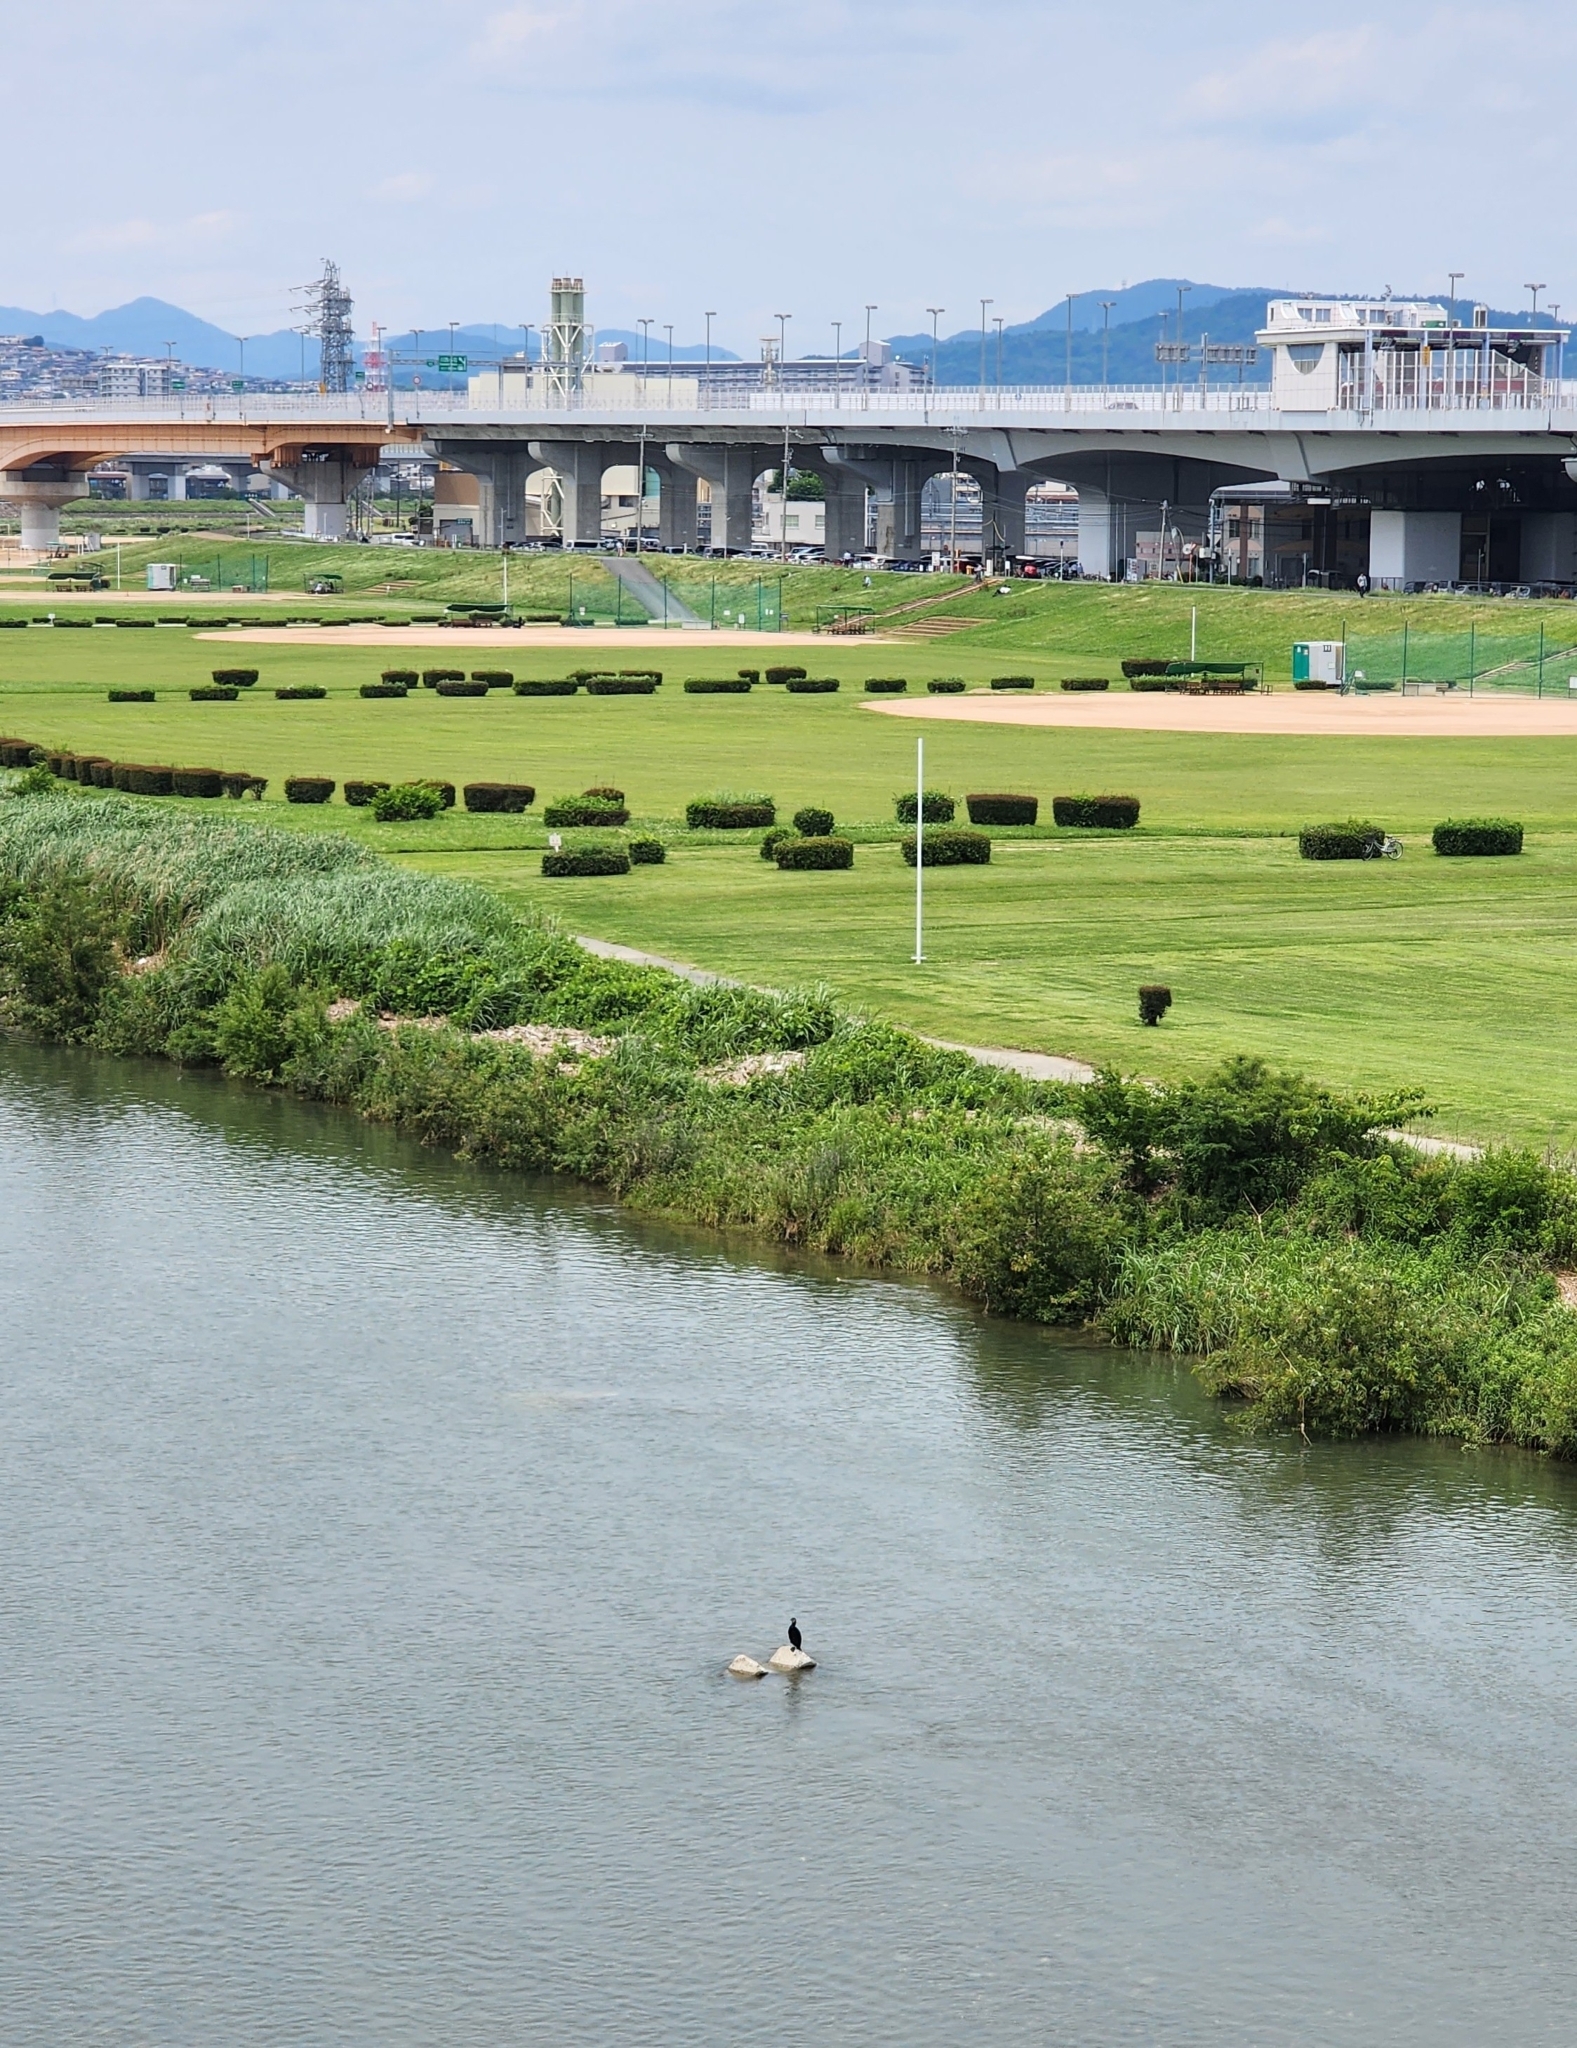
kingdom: Animalia
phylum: Chordata
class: Aves
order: Suliformes
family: Phalacrocoracidae
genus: Phalacrocorax
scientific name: Phalacrocorax carbo
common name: Great cormorant
